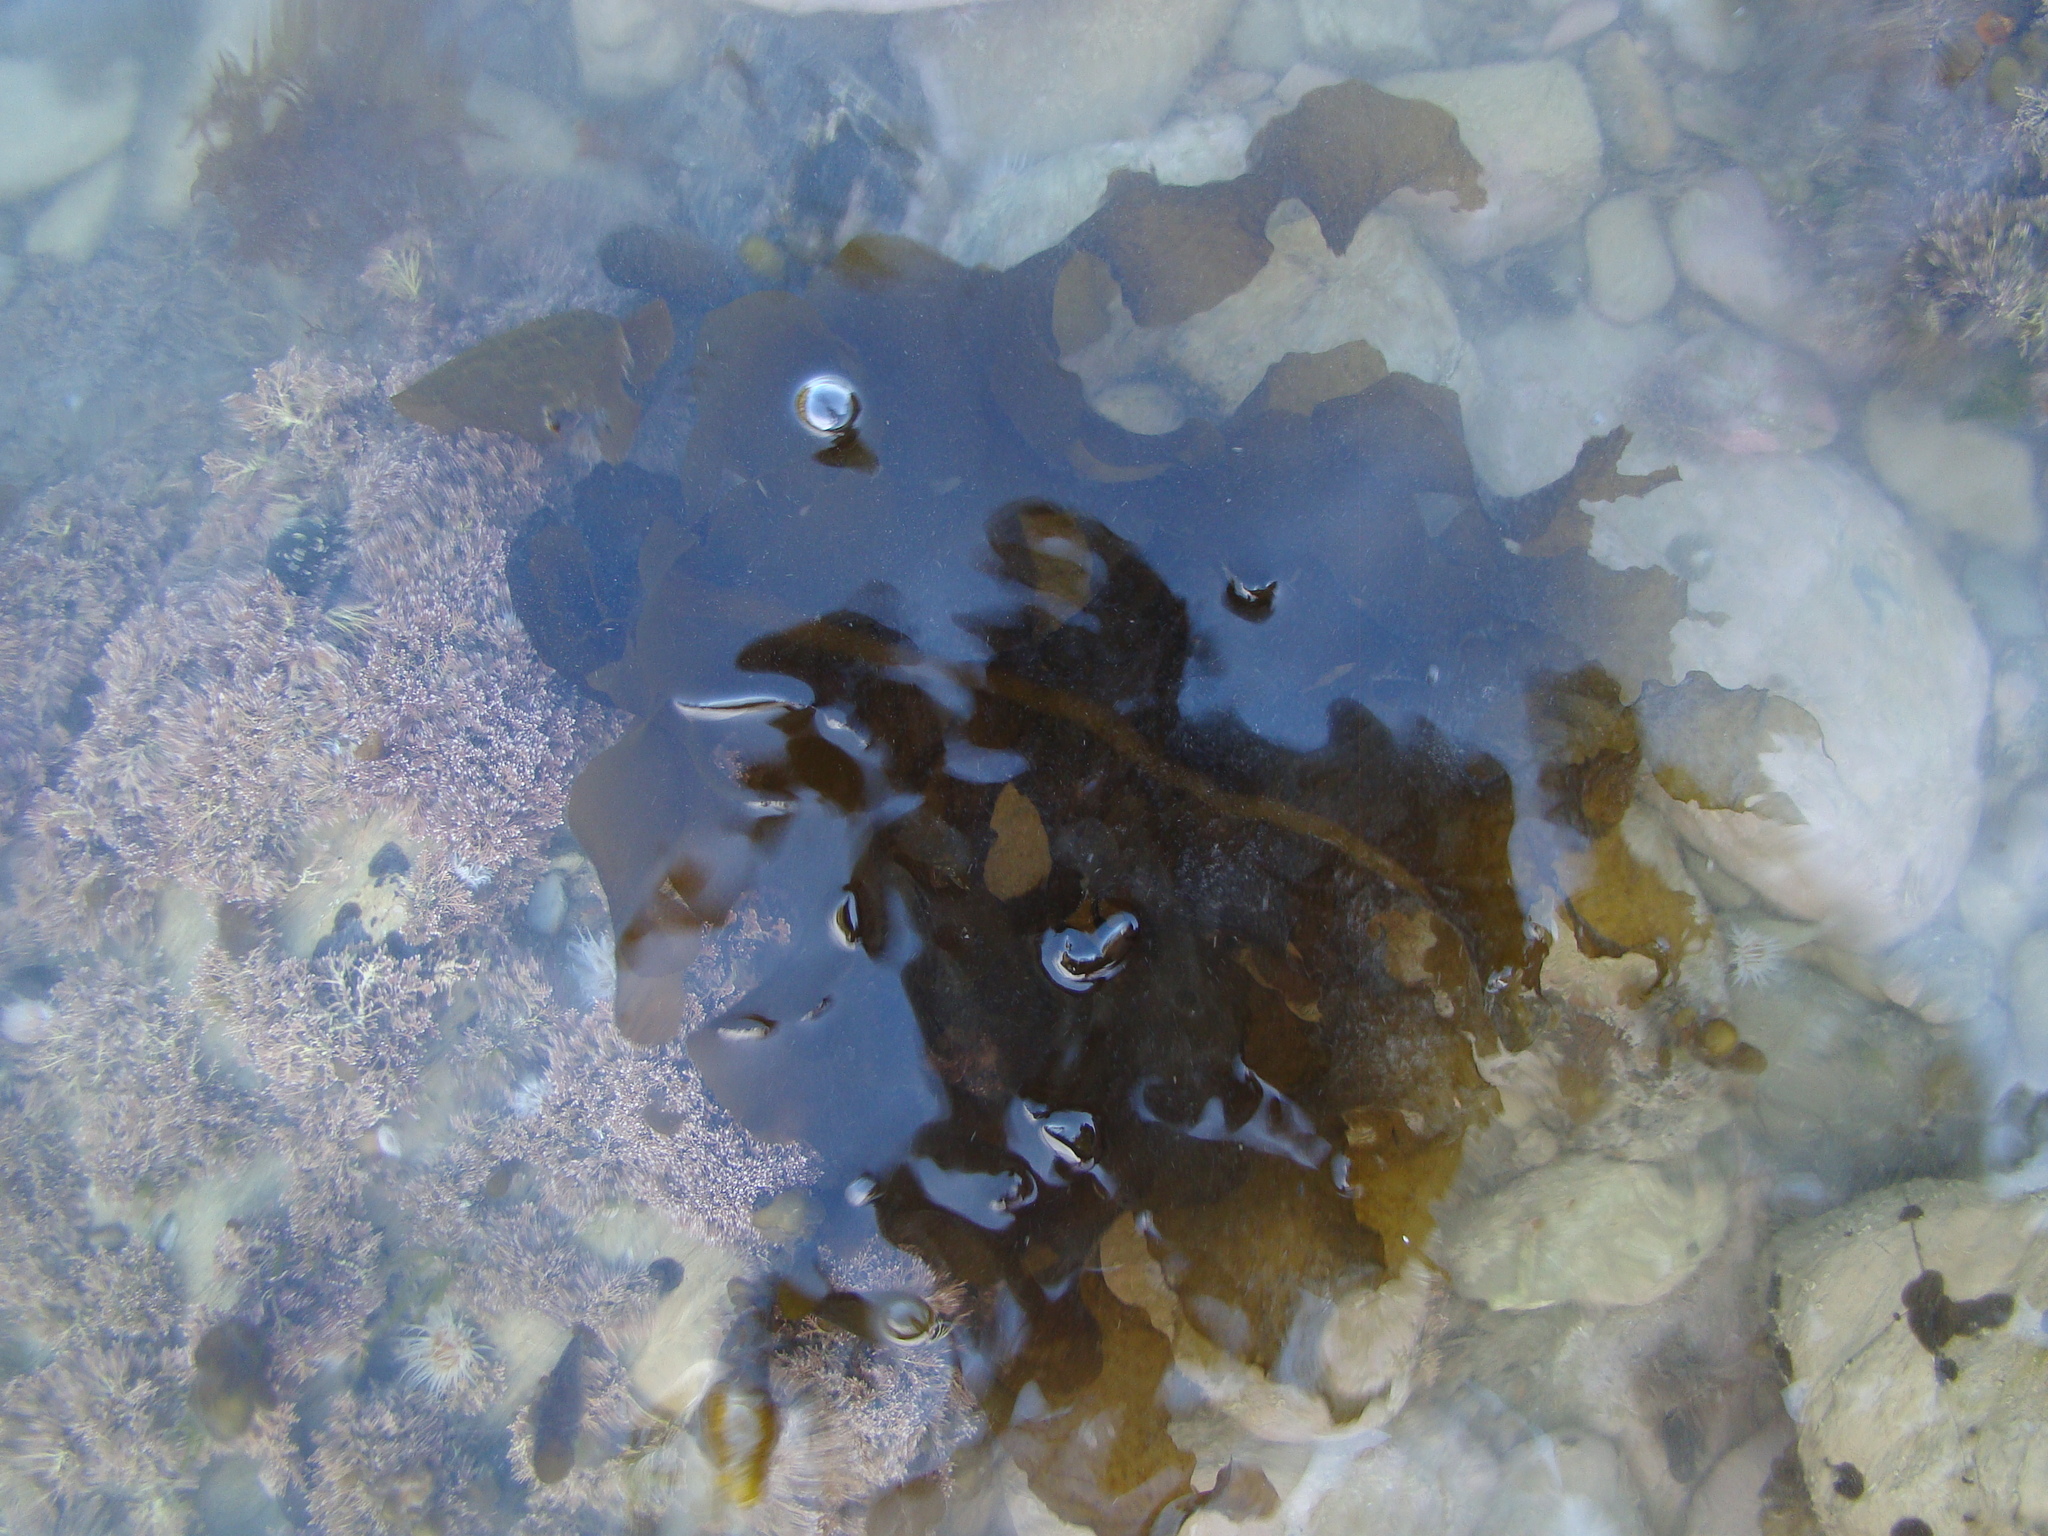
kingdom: Chromista
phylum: Ochrophyta
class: Phaeophyceae
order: Laminariales
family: Alariaceae
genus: Undaria
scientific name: Undaria pinnatifida
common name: Asian kelp
